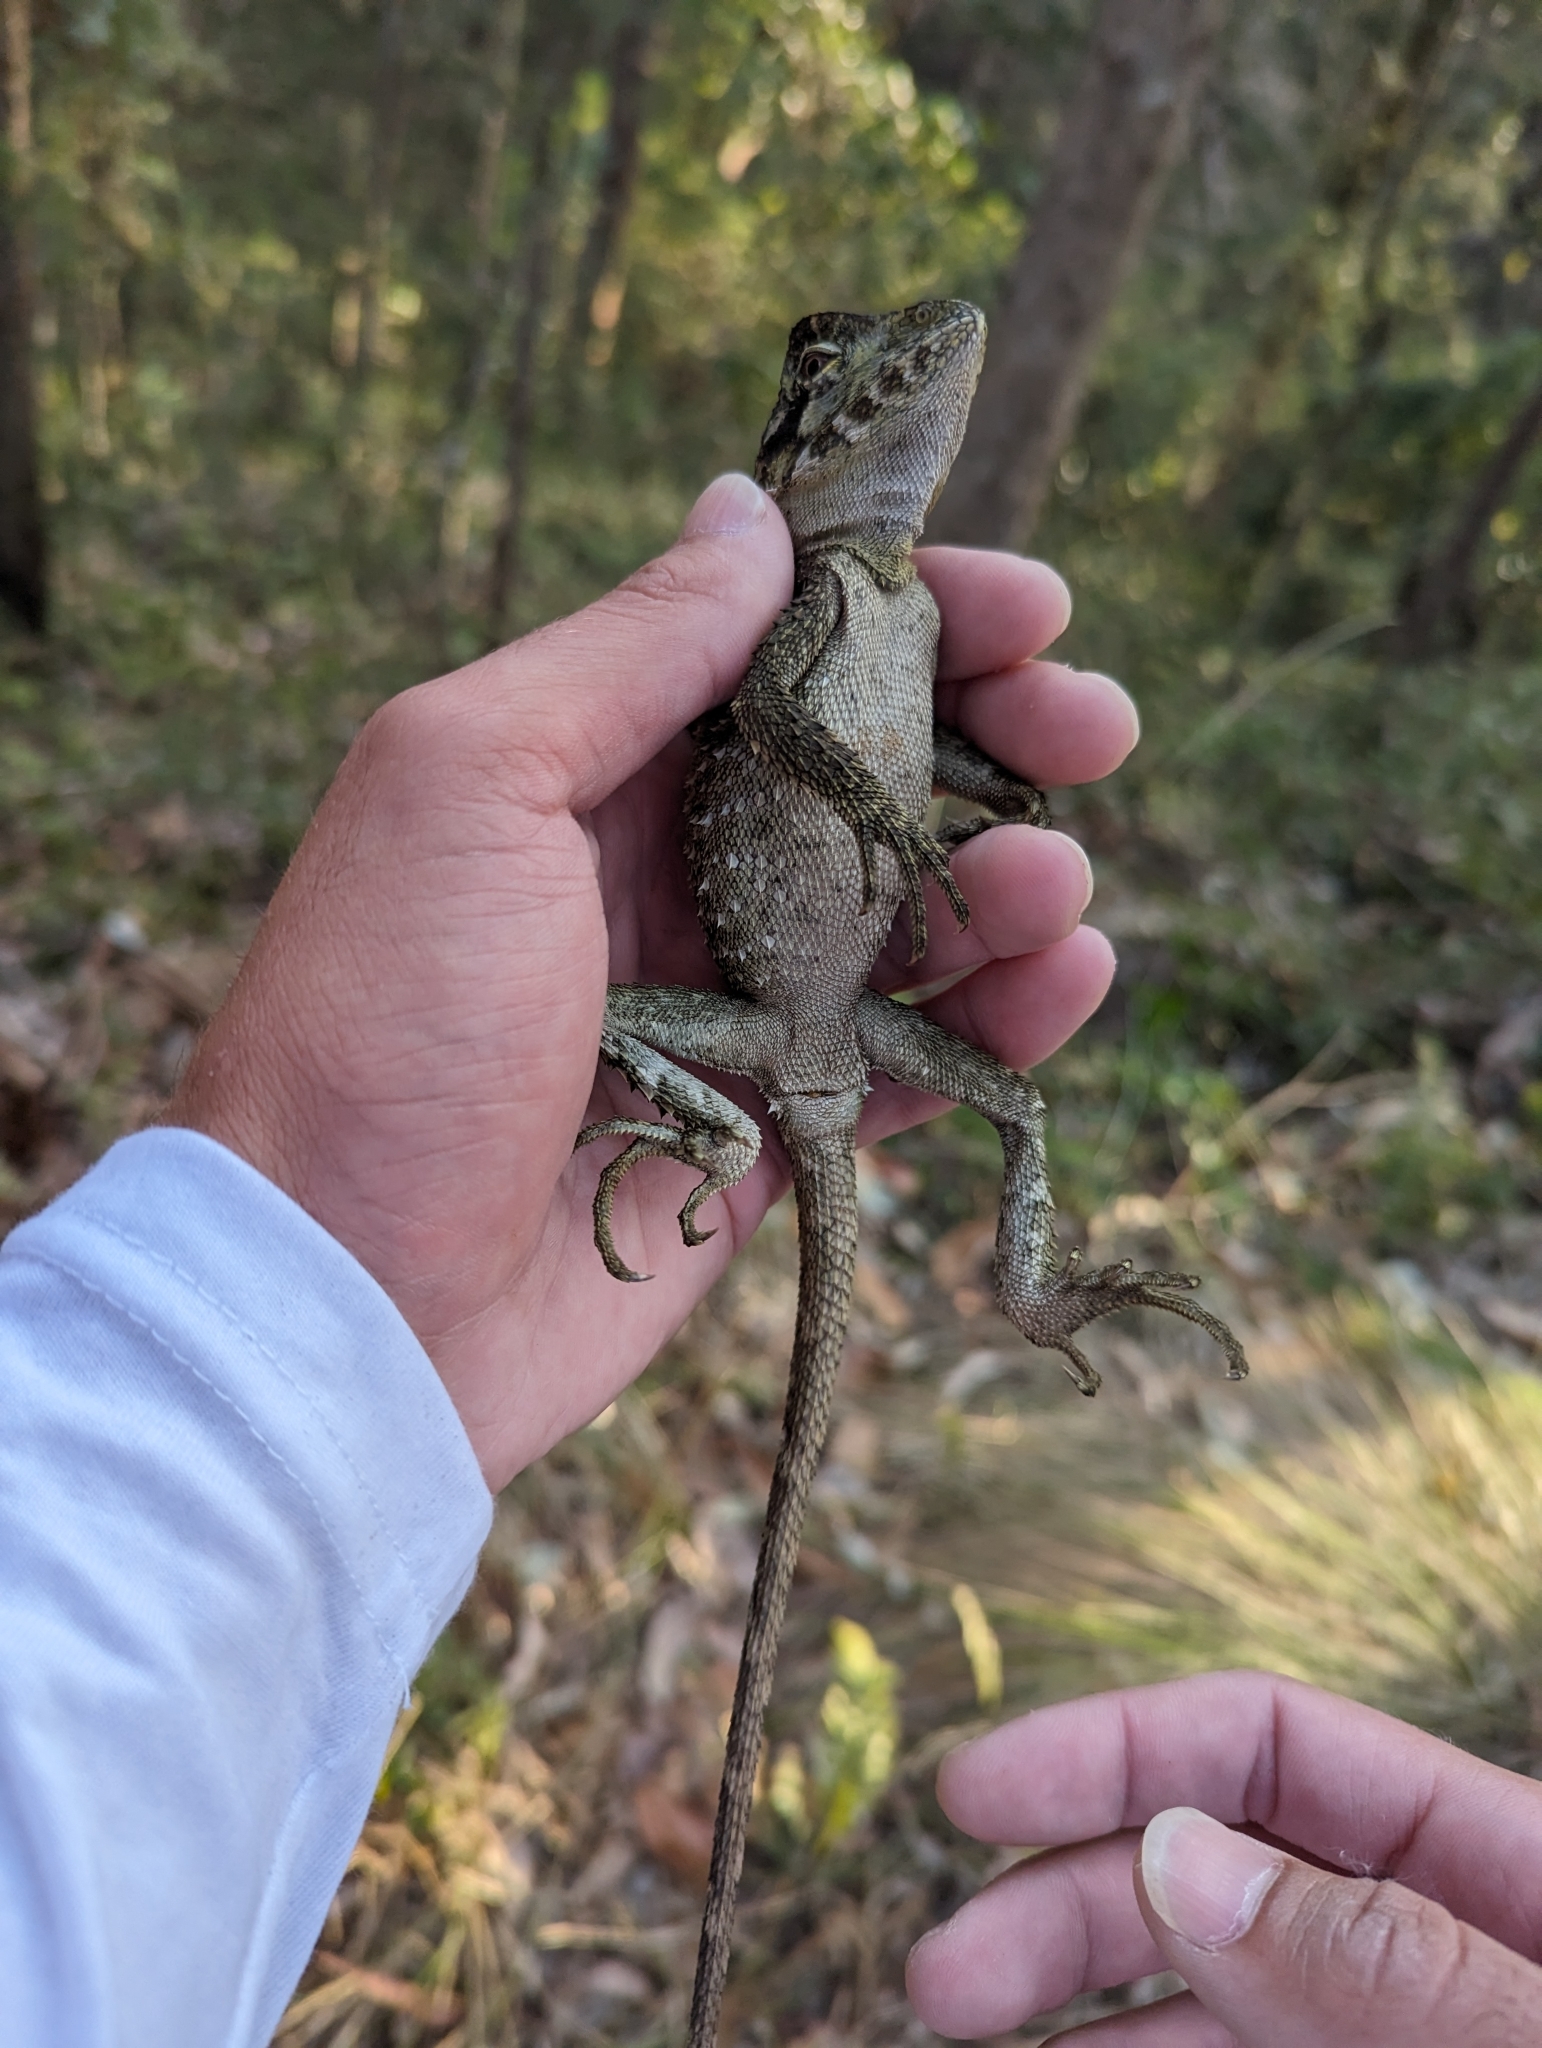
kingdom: Animalia
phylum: Chordata
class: Squamata
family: Agamidae
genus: Lophosaurus
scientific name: Lophosaurus spinipes
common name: Southern angle-headed dragon
